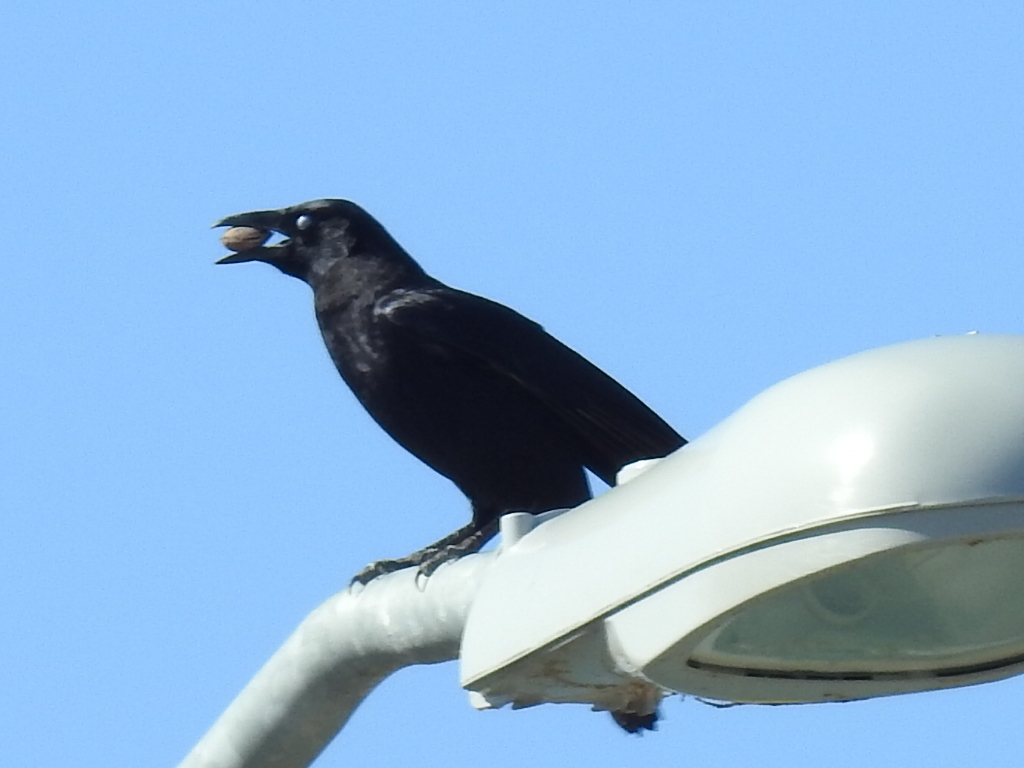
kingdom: Animalia
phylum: Chordata
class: Aves
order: Passeriformes
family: Corvidae
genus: Corvus
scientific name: Corvus brachyrhynchos
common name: American crow
